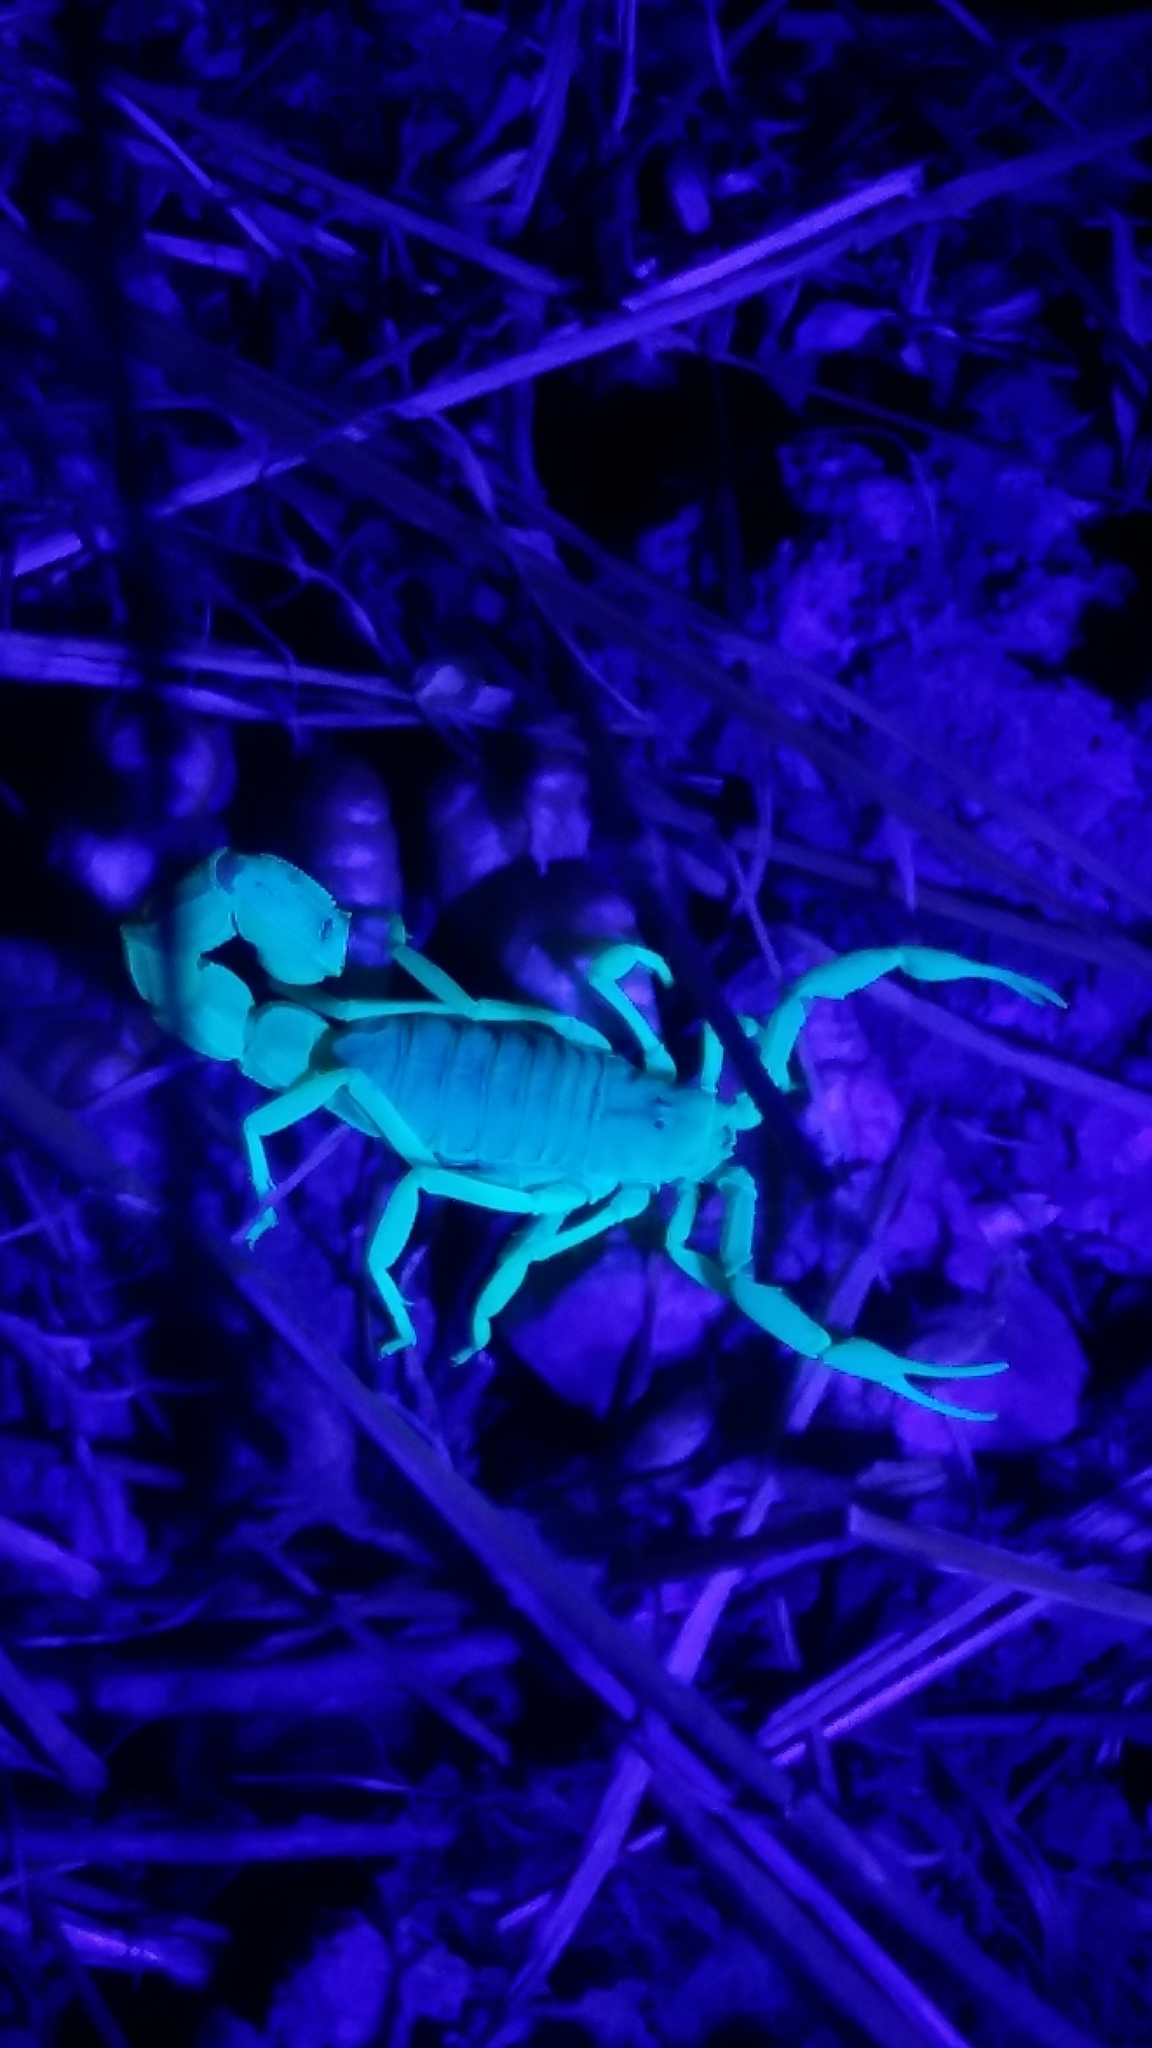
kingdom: Animalia
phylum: Arthropoda
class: Arachnida
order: Scorpiones
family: Buthidae
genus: Parabuthus
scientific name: Parabuthus planicauda
